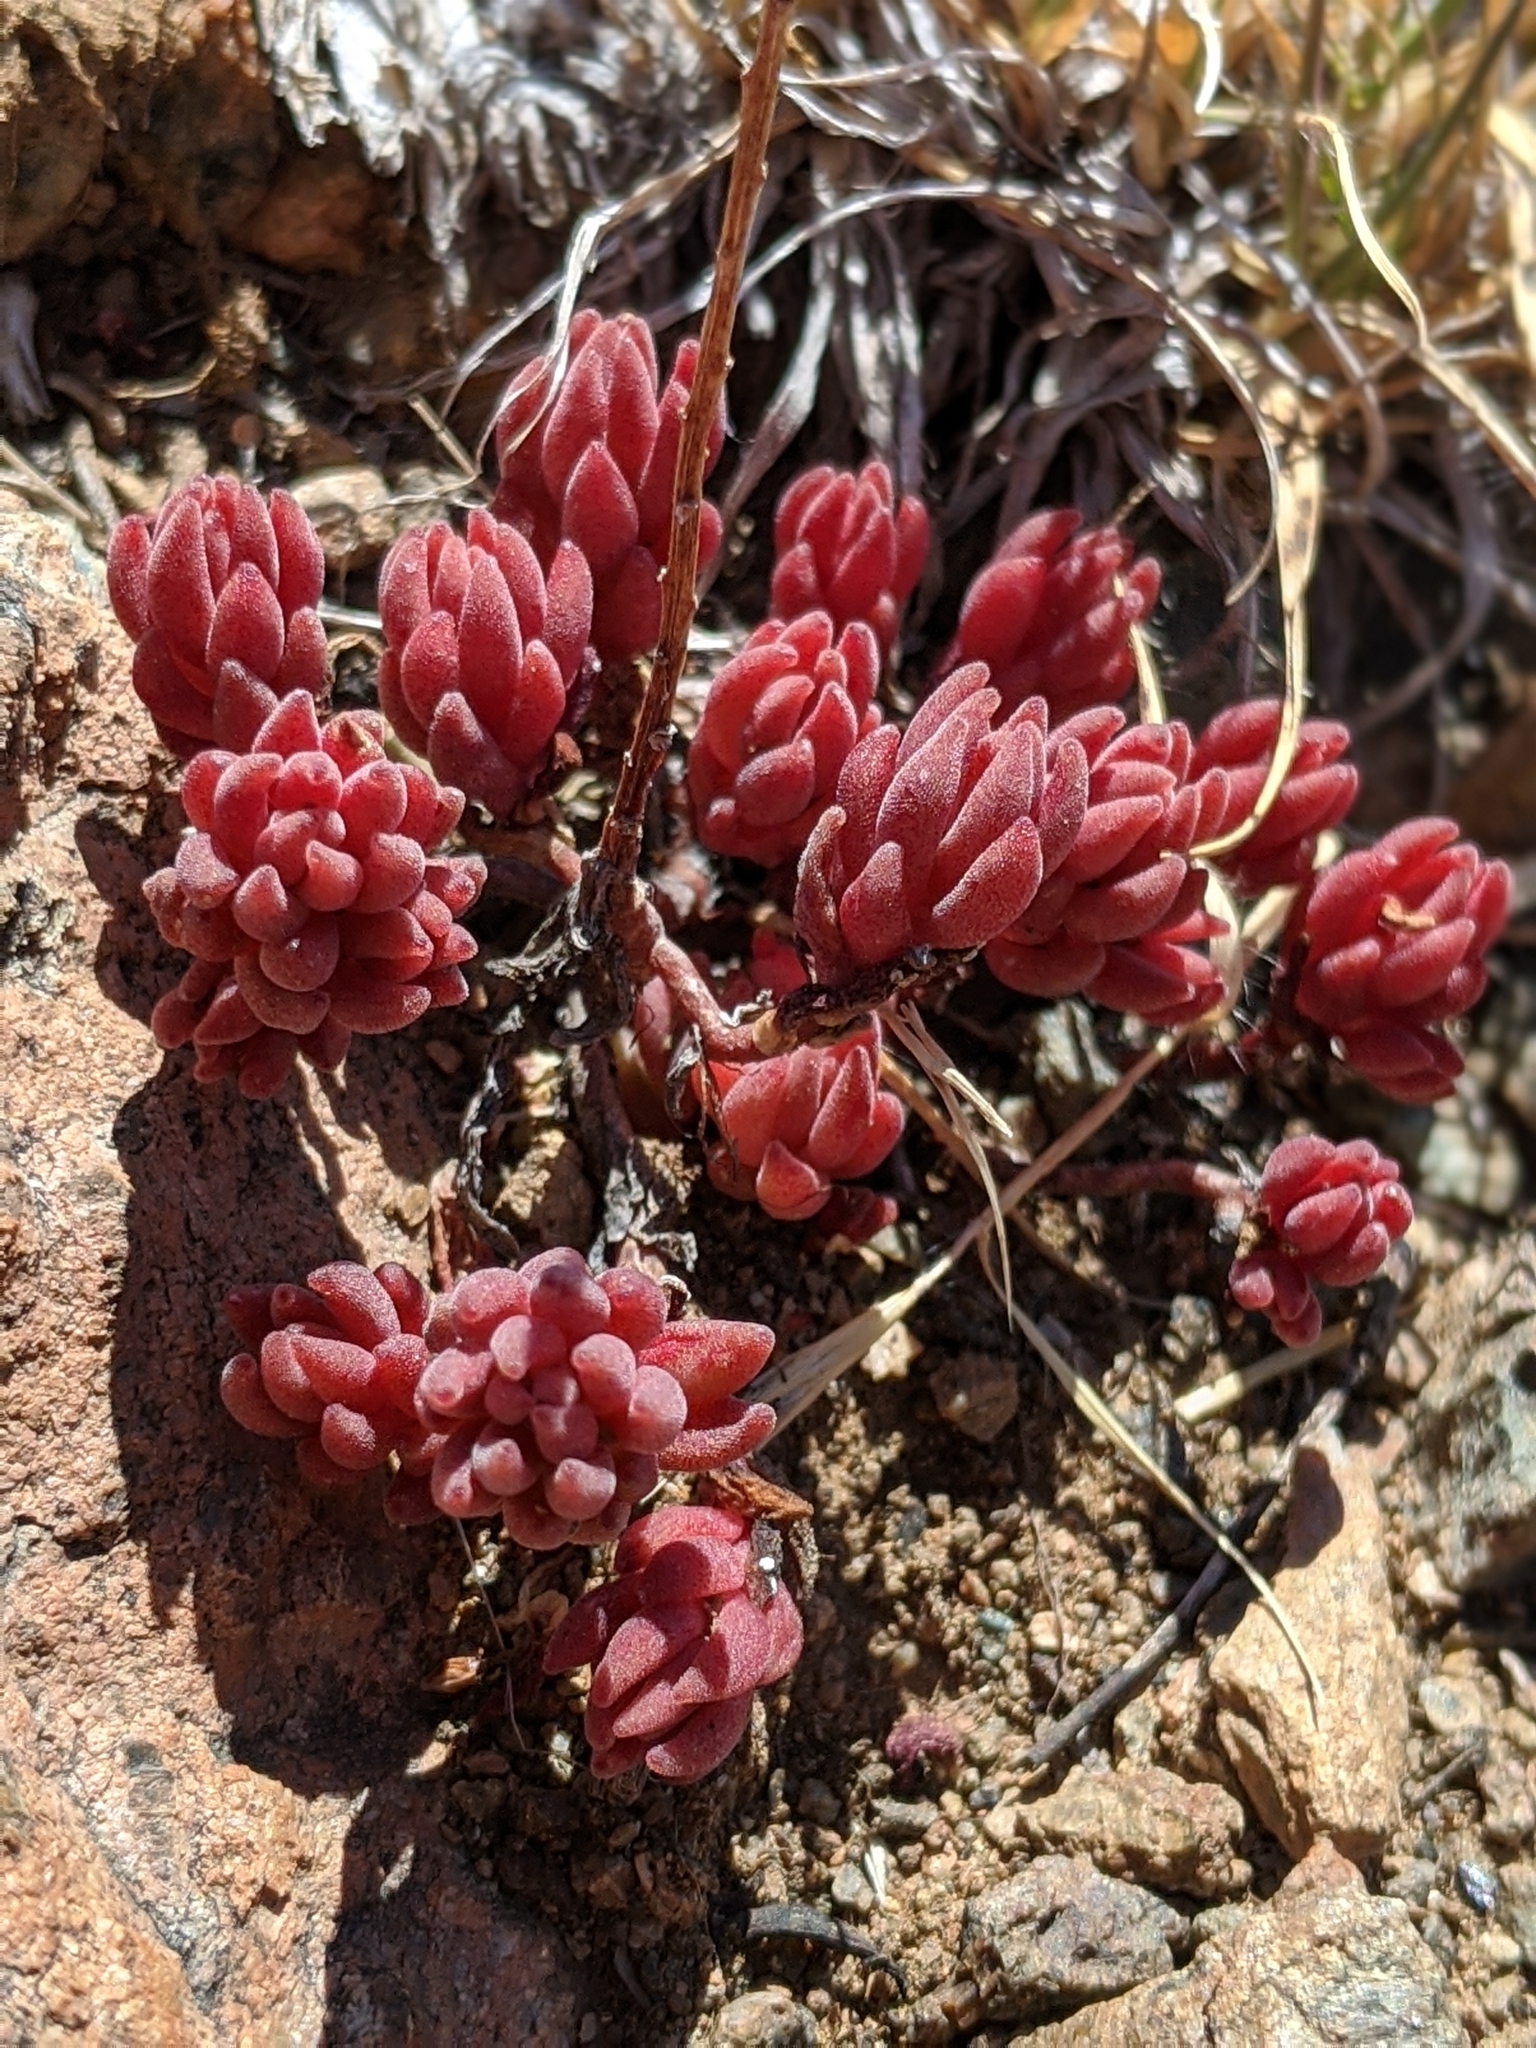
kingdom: Plantae
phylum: Tracheophyta
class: Magnoliopsida
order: Saxifragales
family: Crassulaceae
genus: Sedum
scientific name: Sedum lanceolatum
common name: Common stonecrop
